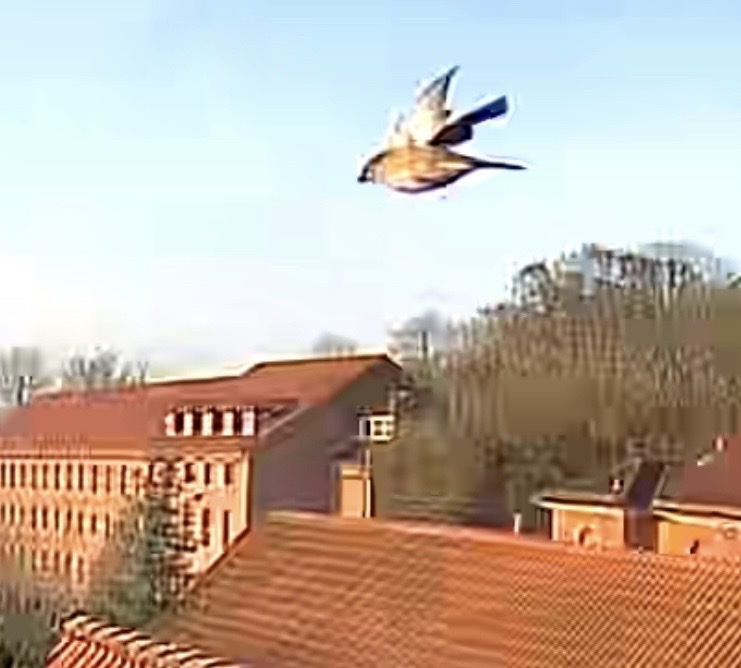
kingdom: Animalia
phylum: Chordata
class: Aves
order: Passeriformes
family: Passeridae
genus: Passer
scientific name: Passer domesticus
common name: House sparrow
